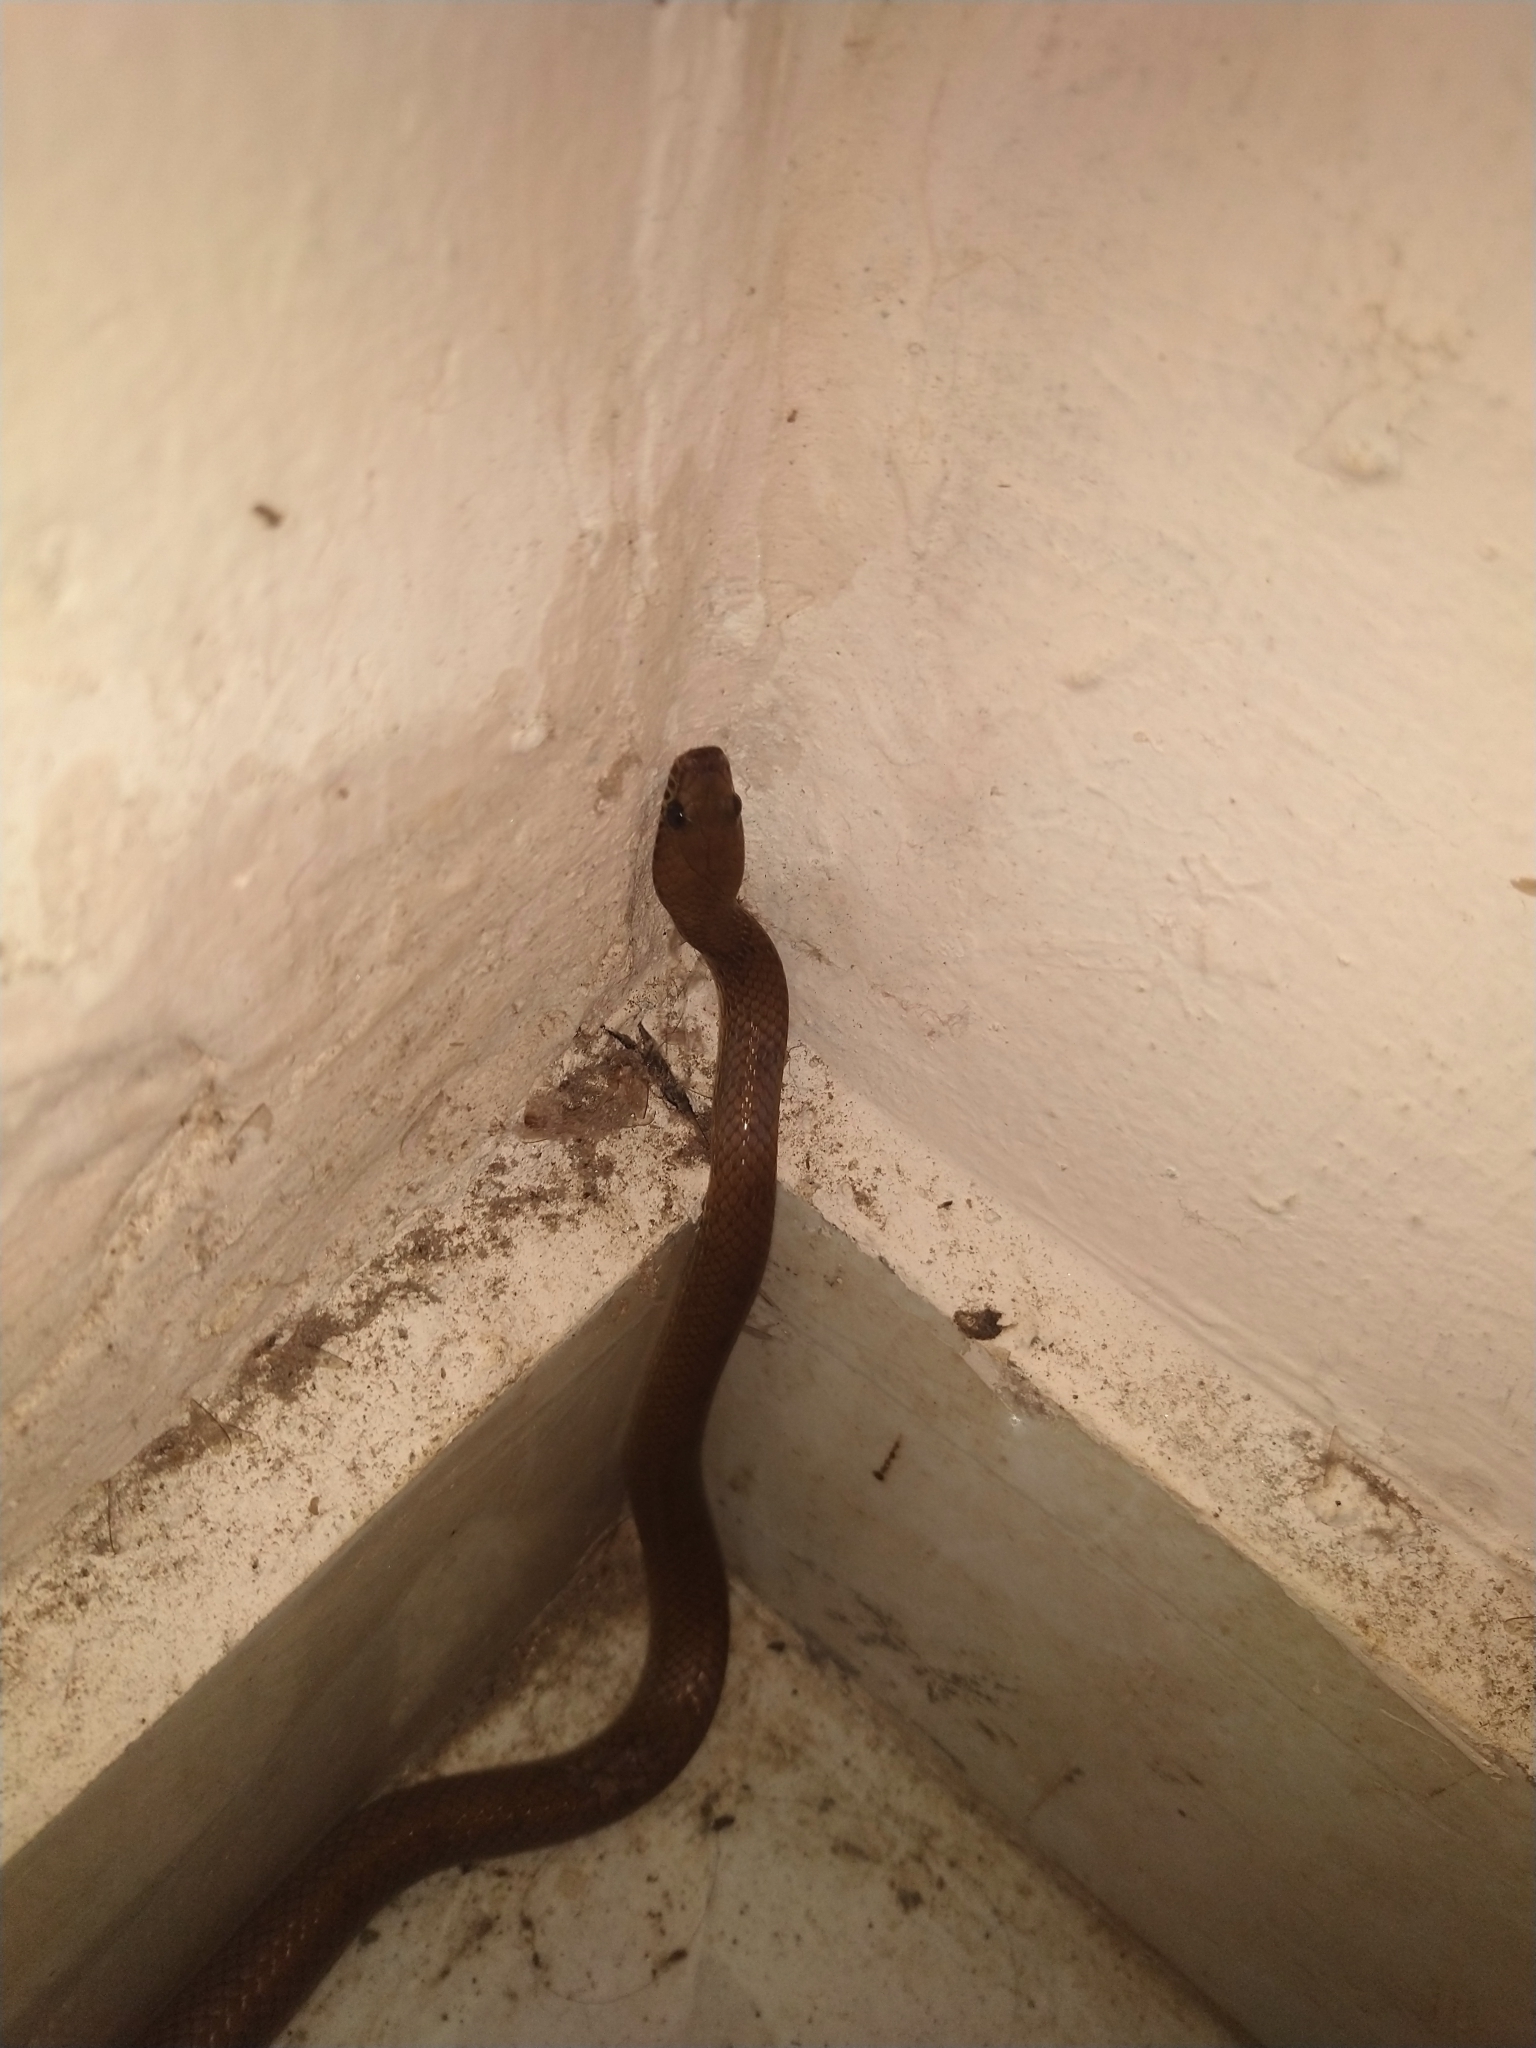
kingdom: Animalia
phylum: Chordata
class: Squamata
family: Colubridae
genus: Lycodon
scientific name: Lycodon fasciolatus
